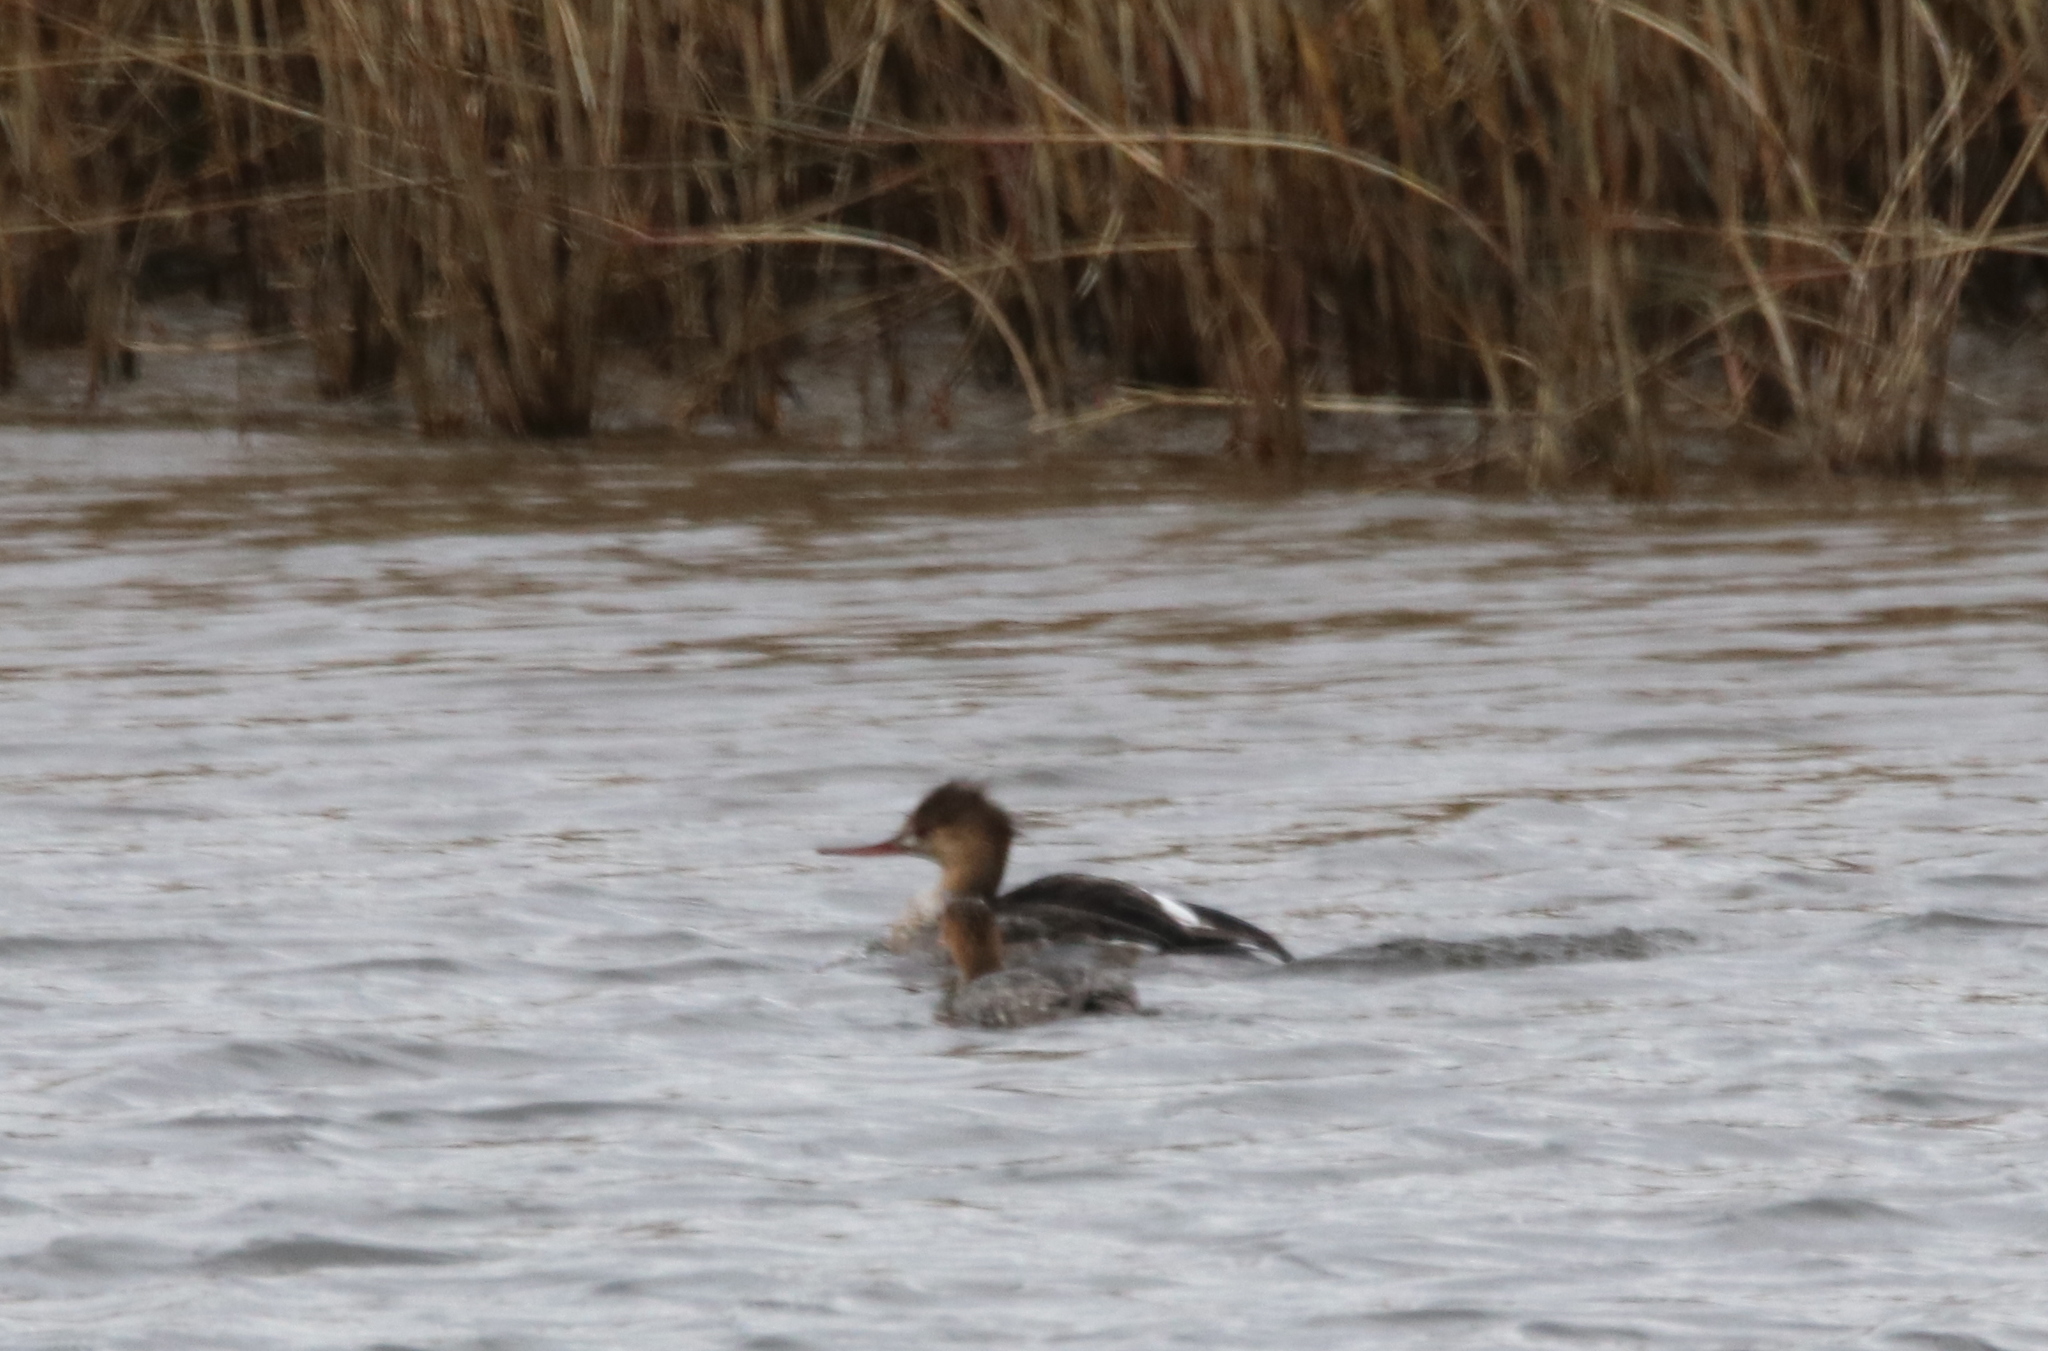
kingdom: Animalia
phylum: Chordata
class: Aves
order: Anseriformes
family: Anatidae
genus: Mergus
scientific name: Mergus serrator
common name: Red-breasted merganser
